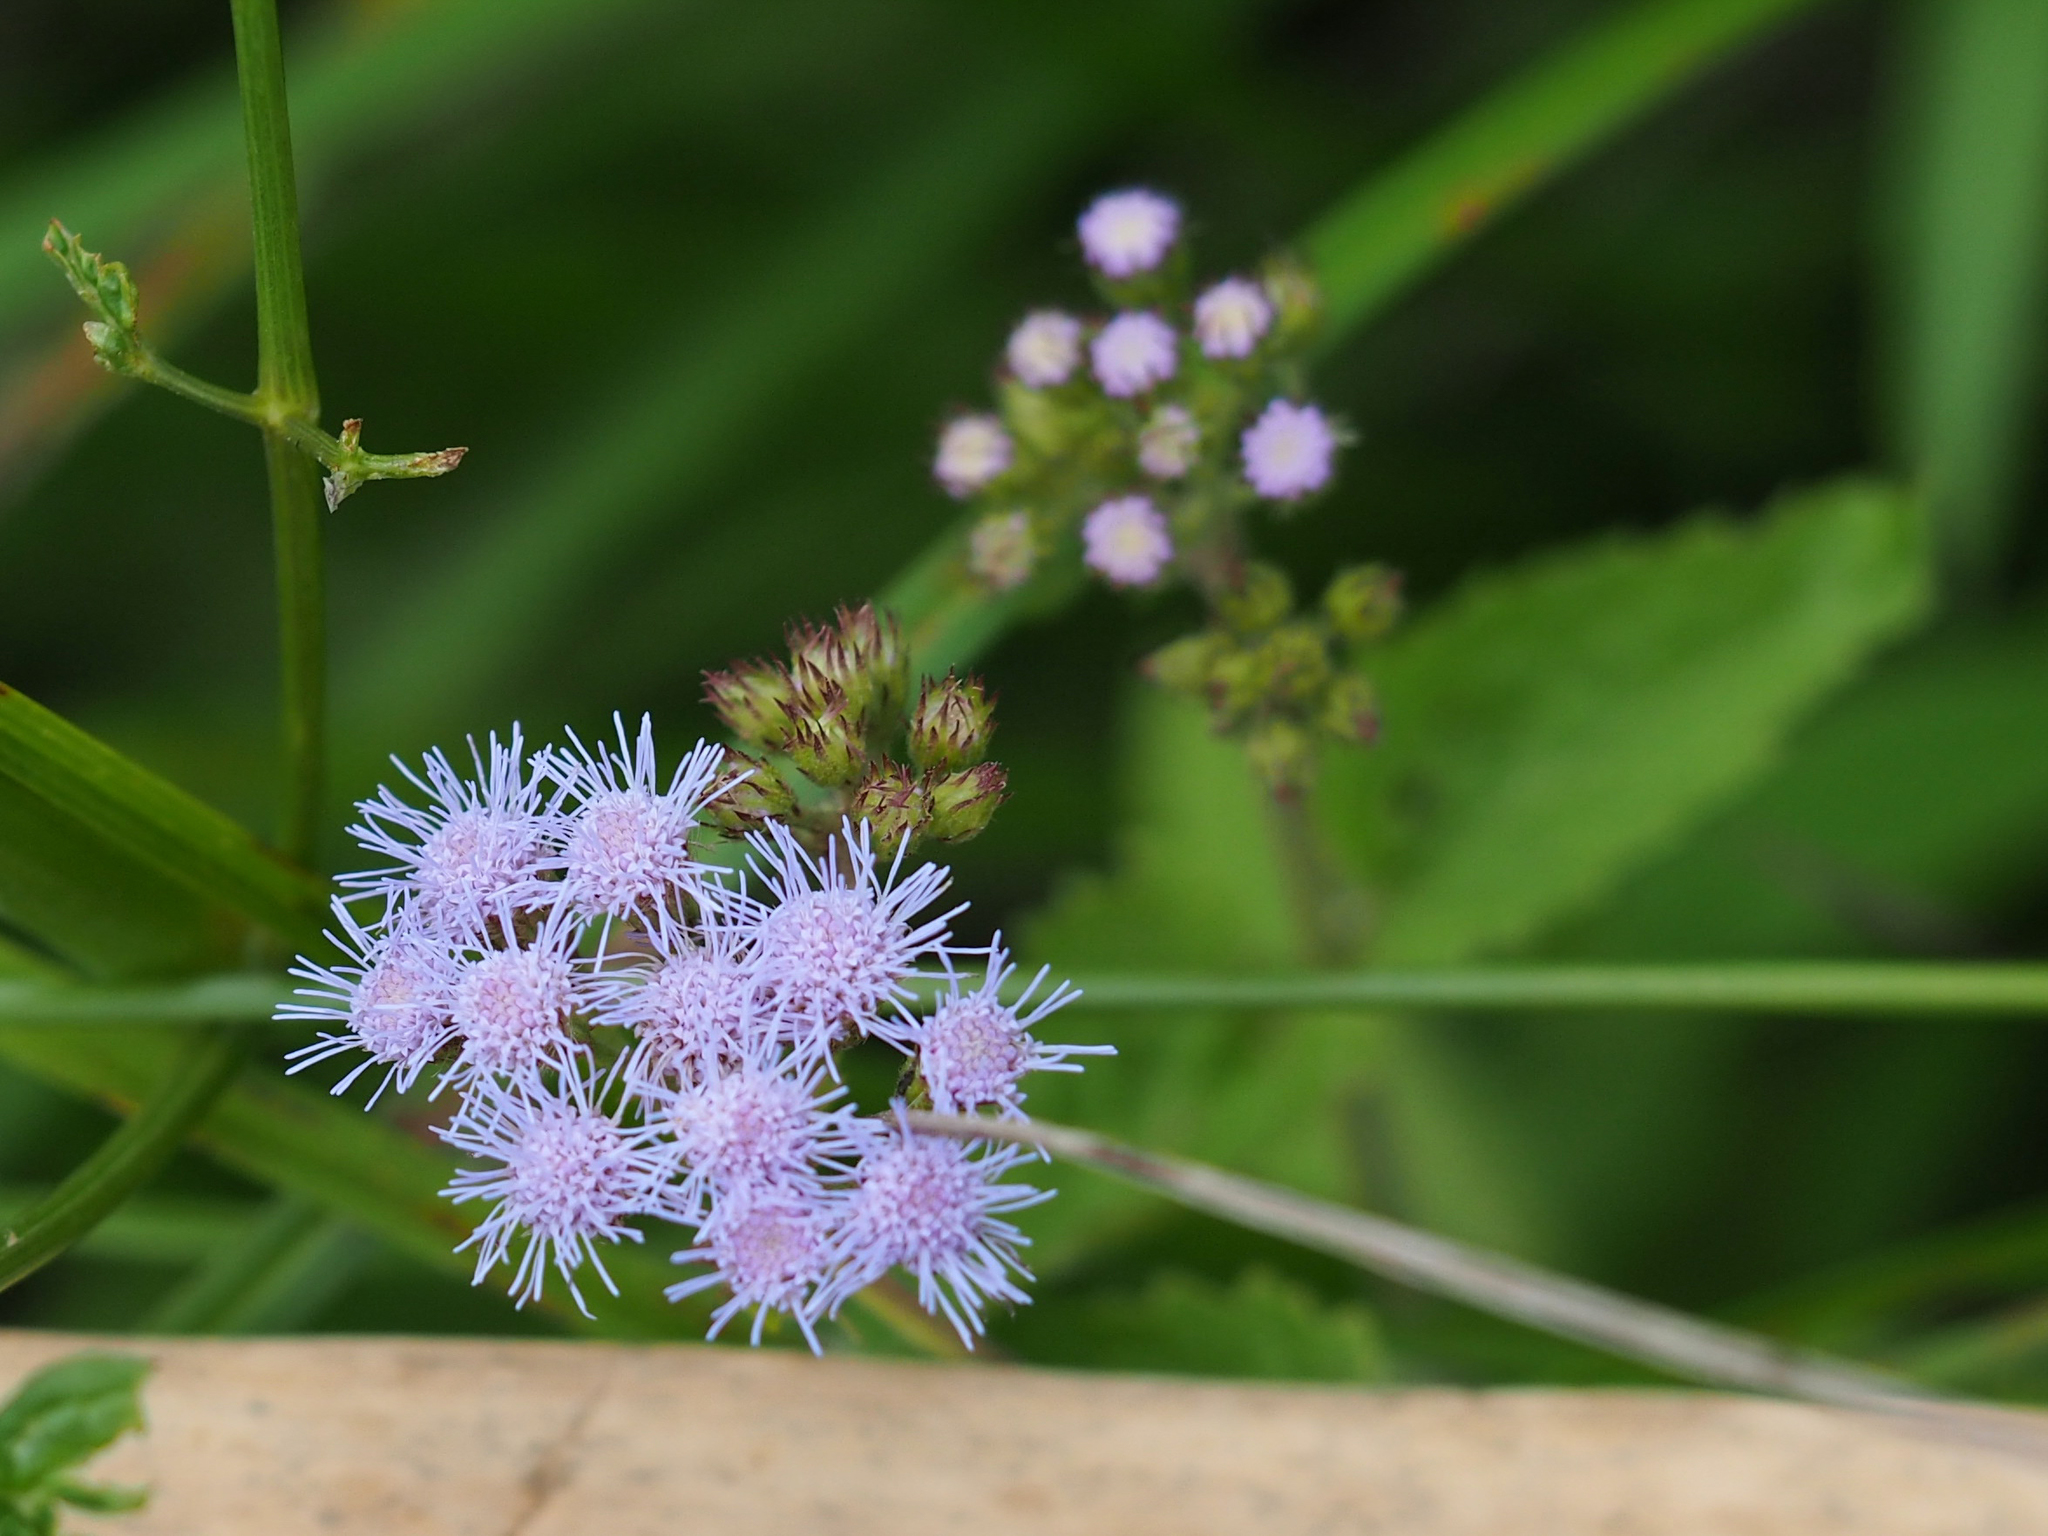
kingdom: Plantae
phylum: Tracheophyta
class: Magnoliopsida
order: Asterales
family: Asteraceae
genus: Conoclinium
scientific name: Conoclinium coelestinum
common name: Blue mistflower
